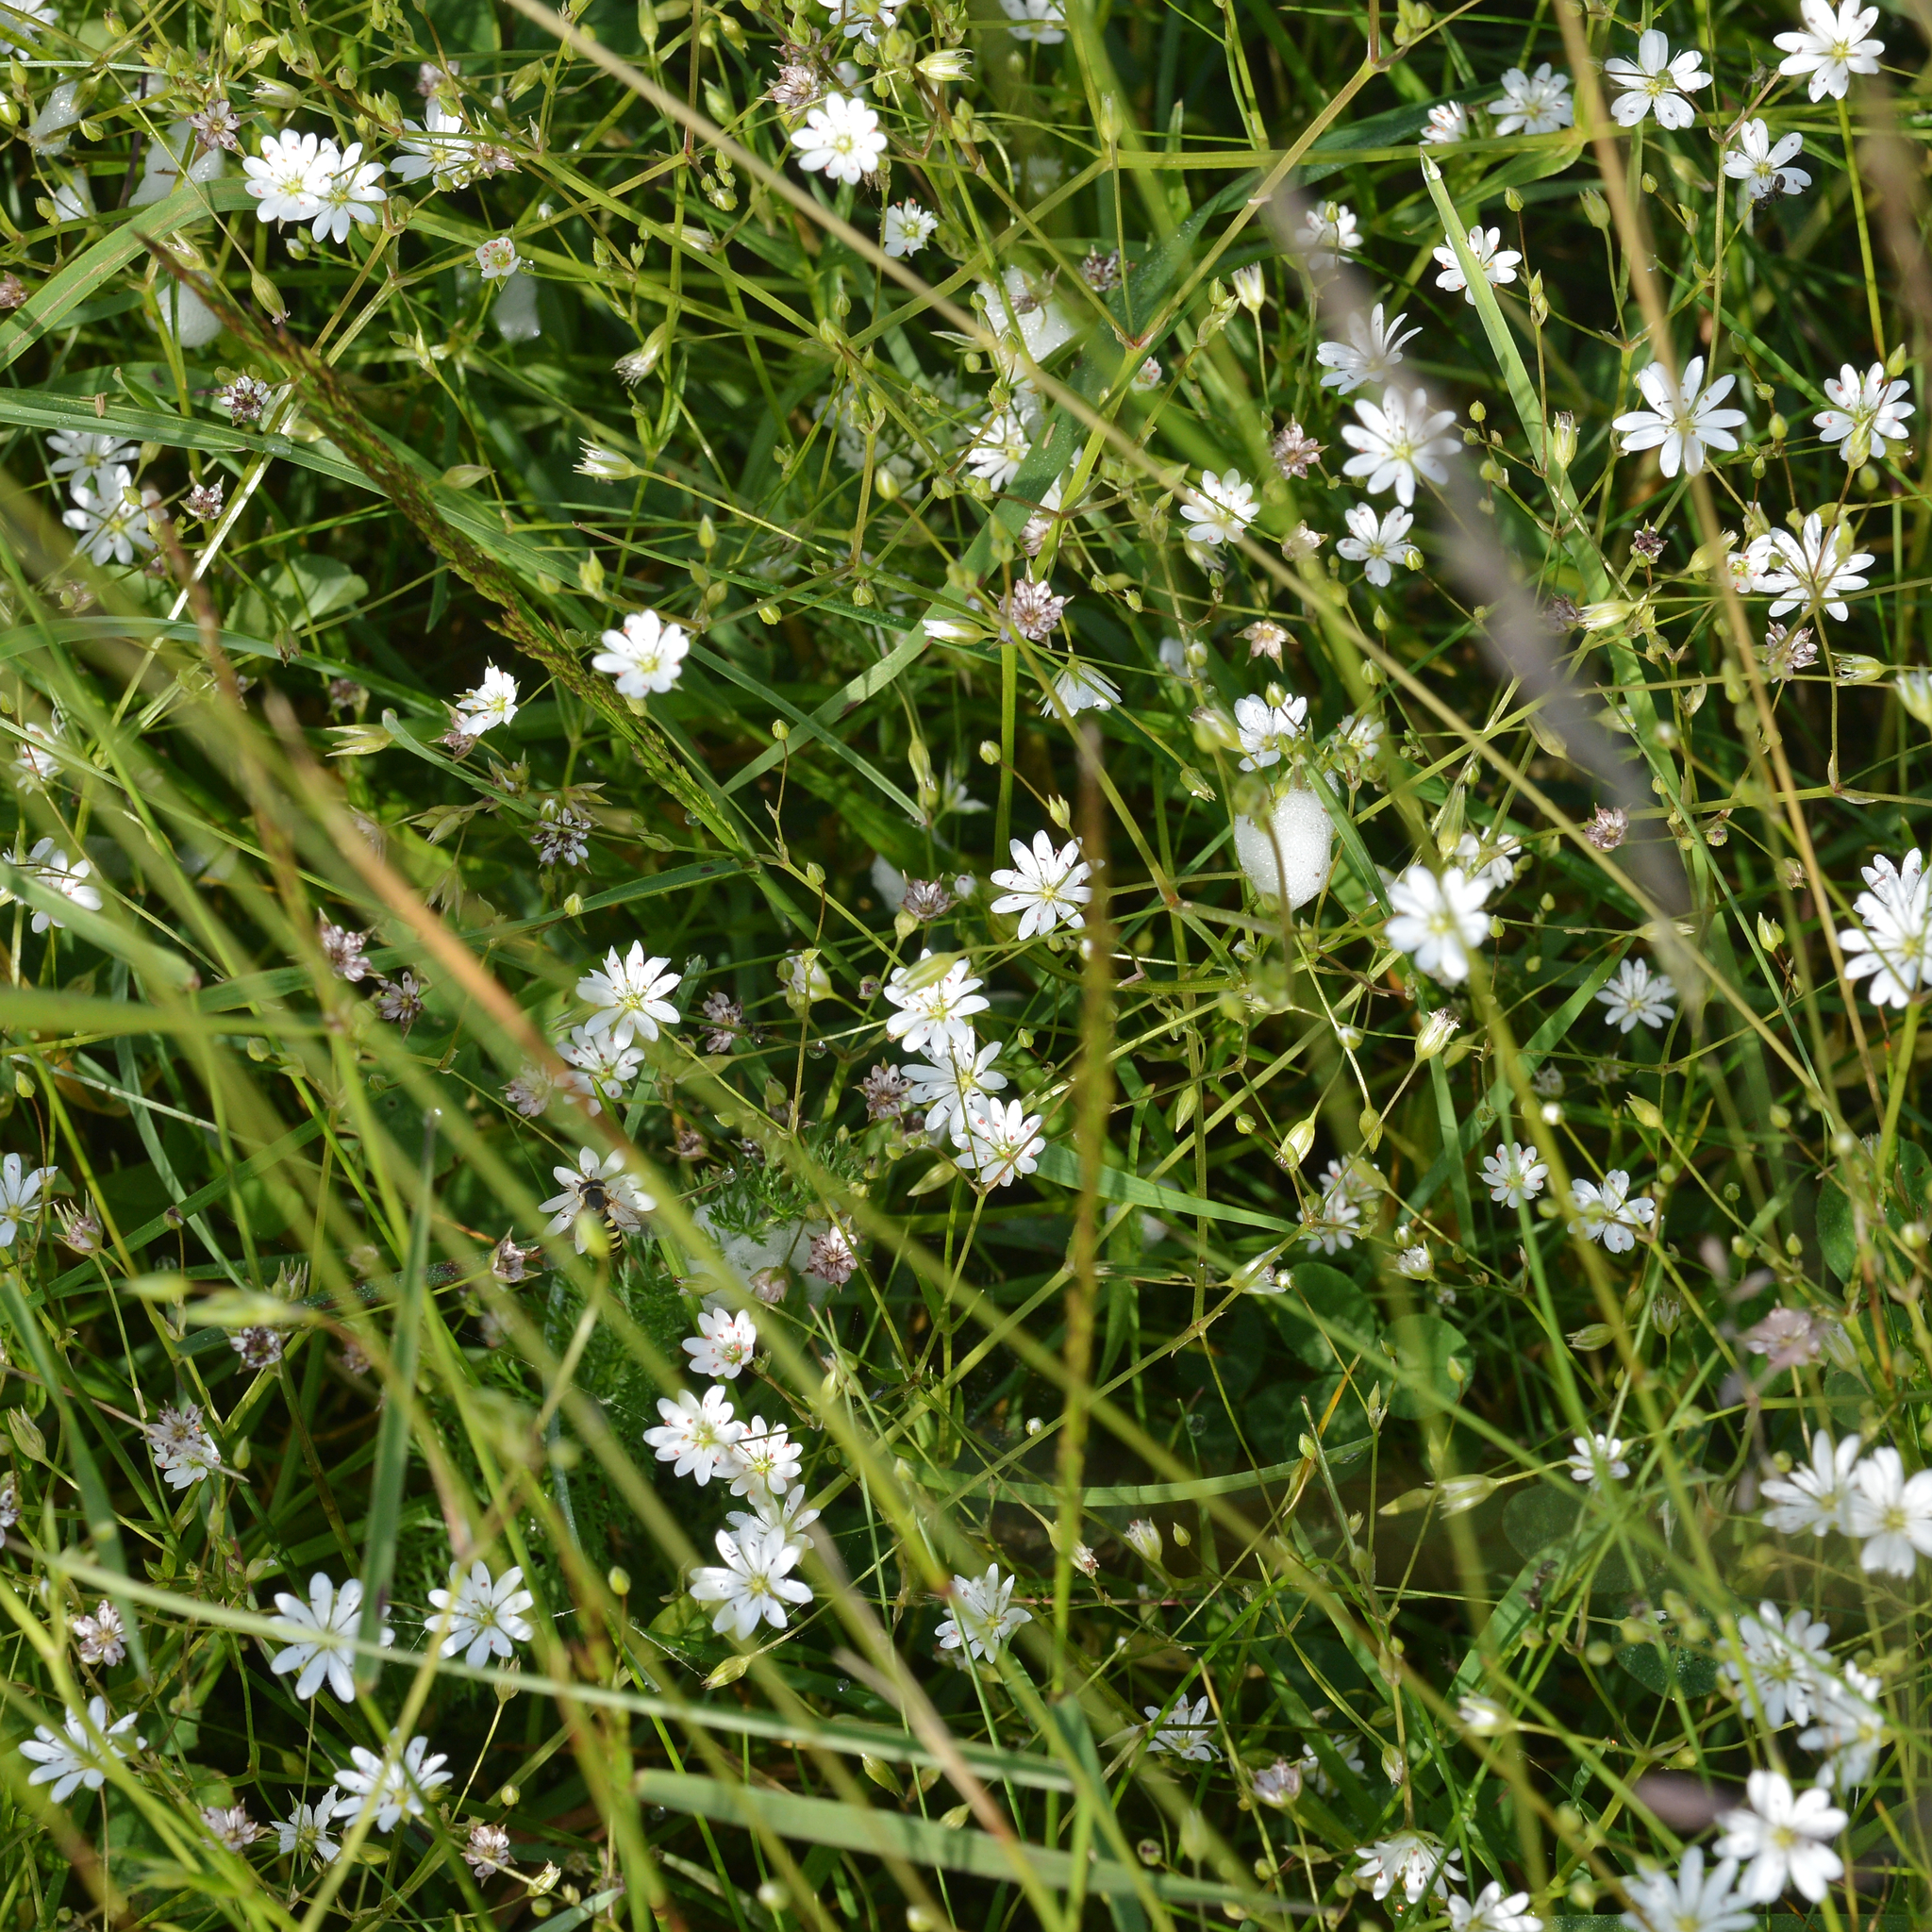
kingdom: Plantae
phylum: Tracheophyta
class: Magnoliopsida
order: Caryophyllales
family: Caryophyllaceae
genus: Stellaria
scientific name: Stellaria graminea
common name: Grass-like starwort
